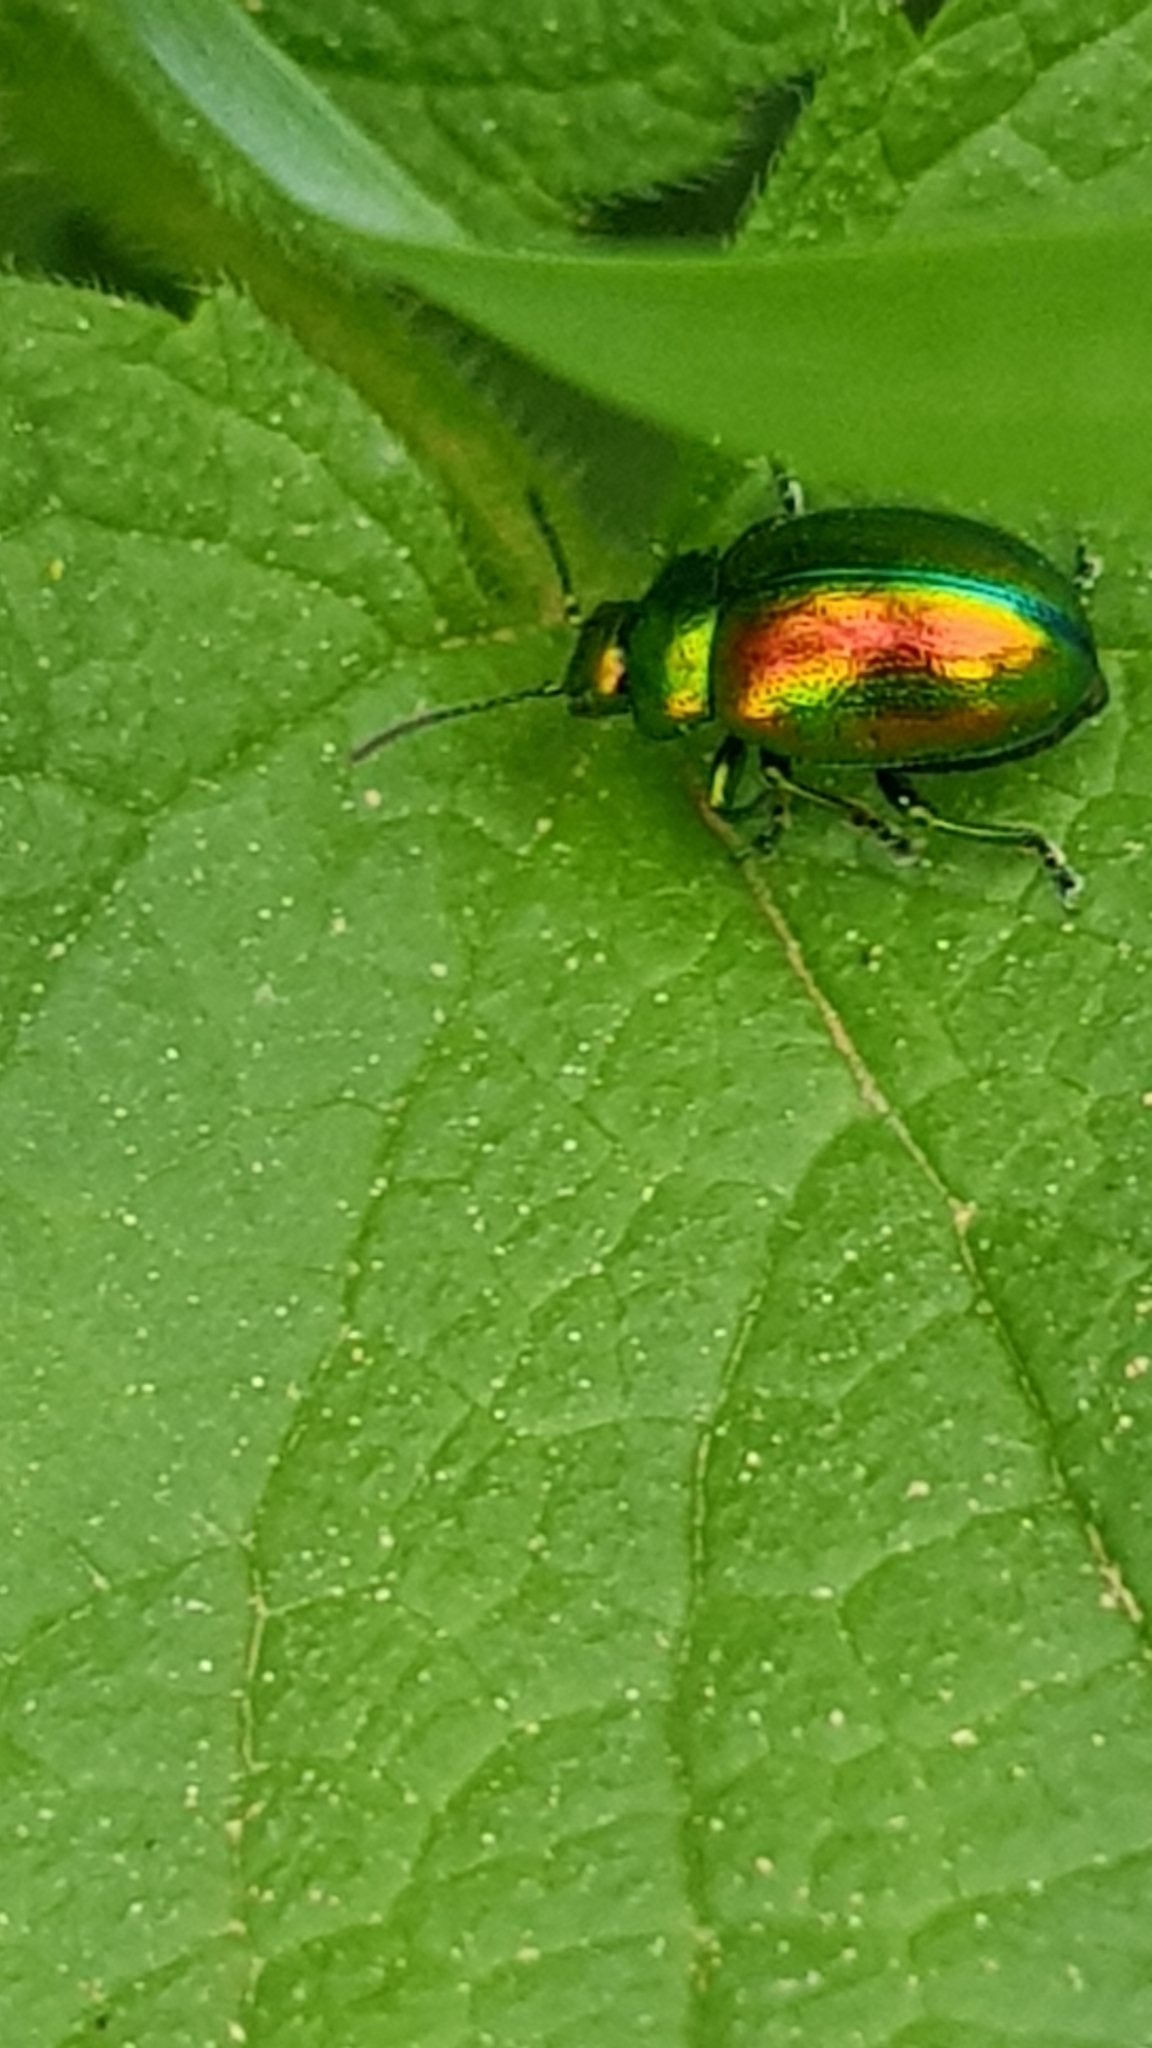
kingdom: Animalia
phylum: Arthropoda
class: Insecta
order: Coleoptera
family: Chrysomelidae
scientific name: Chrysomelidae
